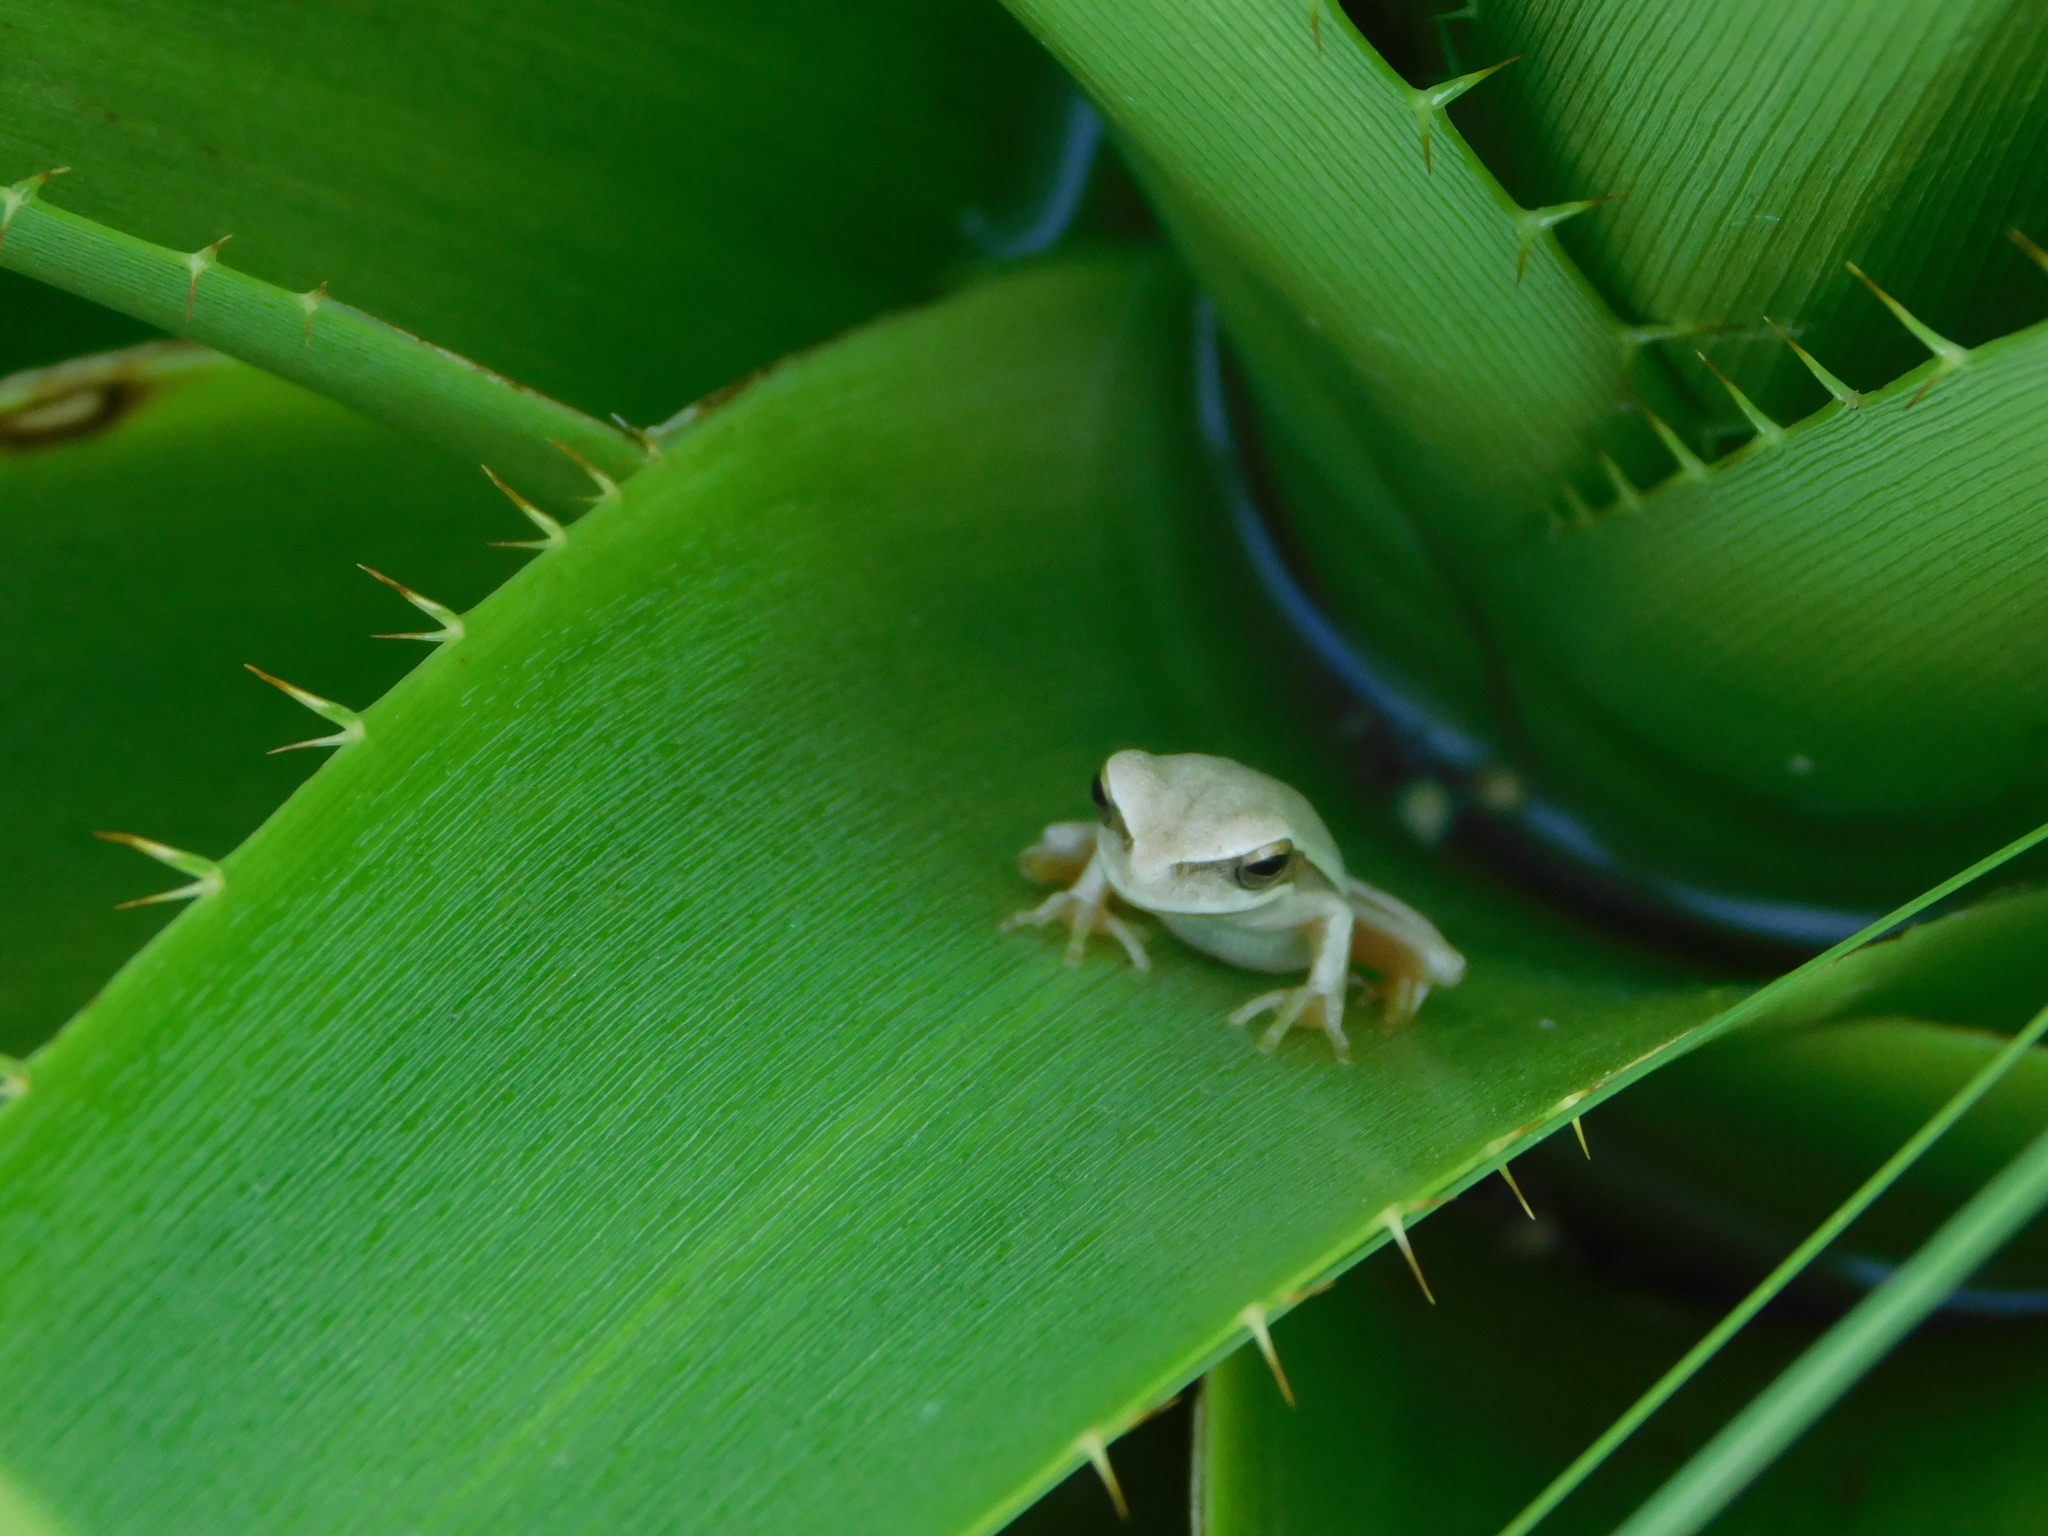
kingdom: Animalia
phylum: Chordata
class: Amphibia
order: Anura
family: Hylidae
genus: Boana
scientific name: Boana pulchella
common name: Montevideo treefrog
